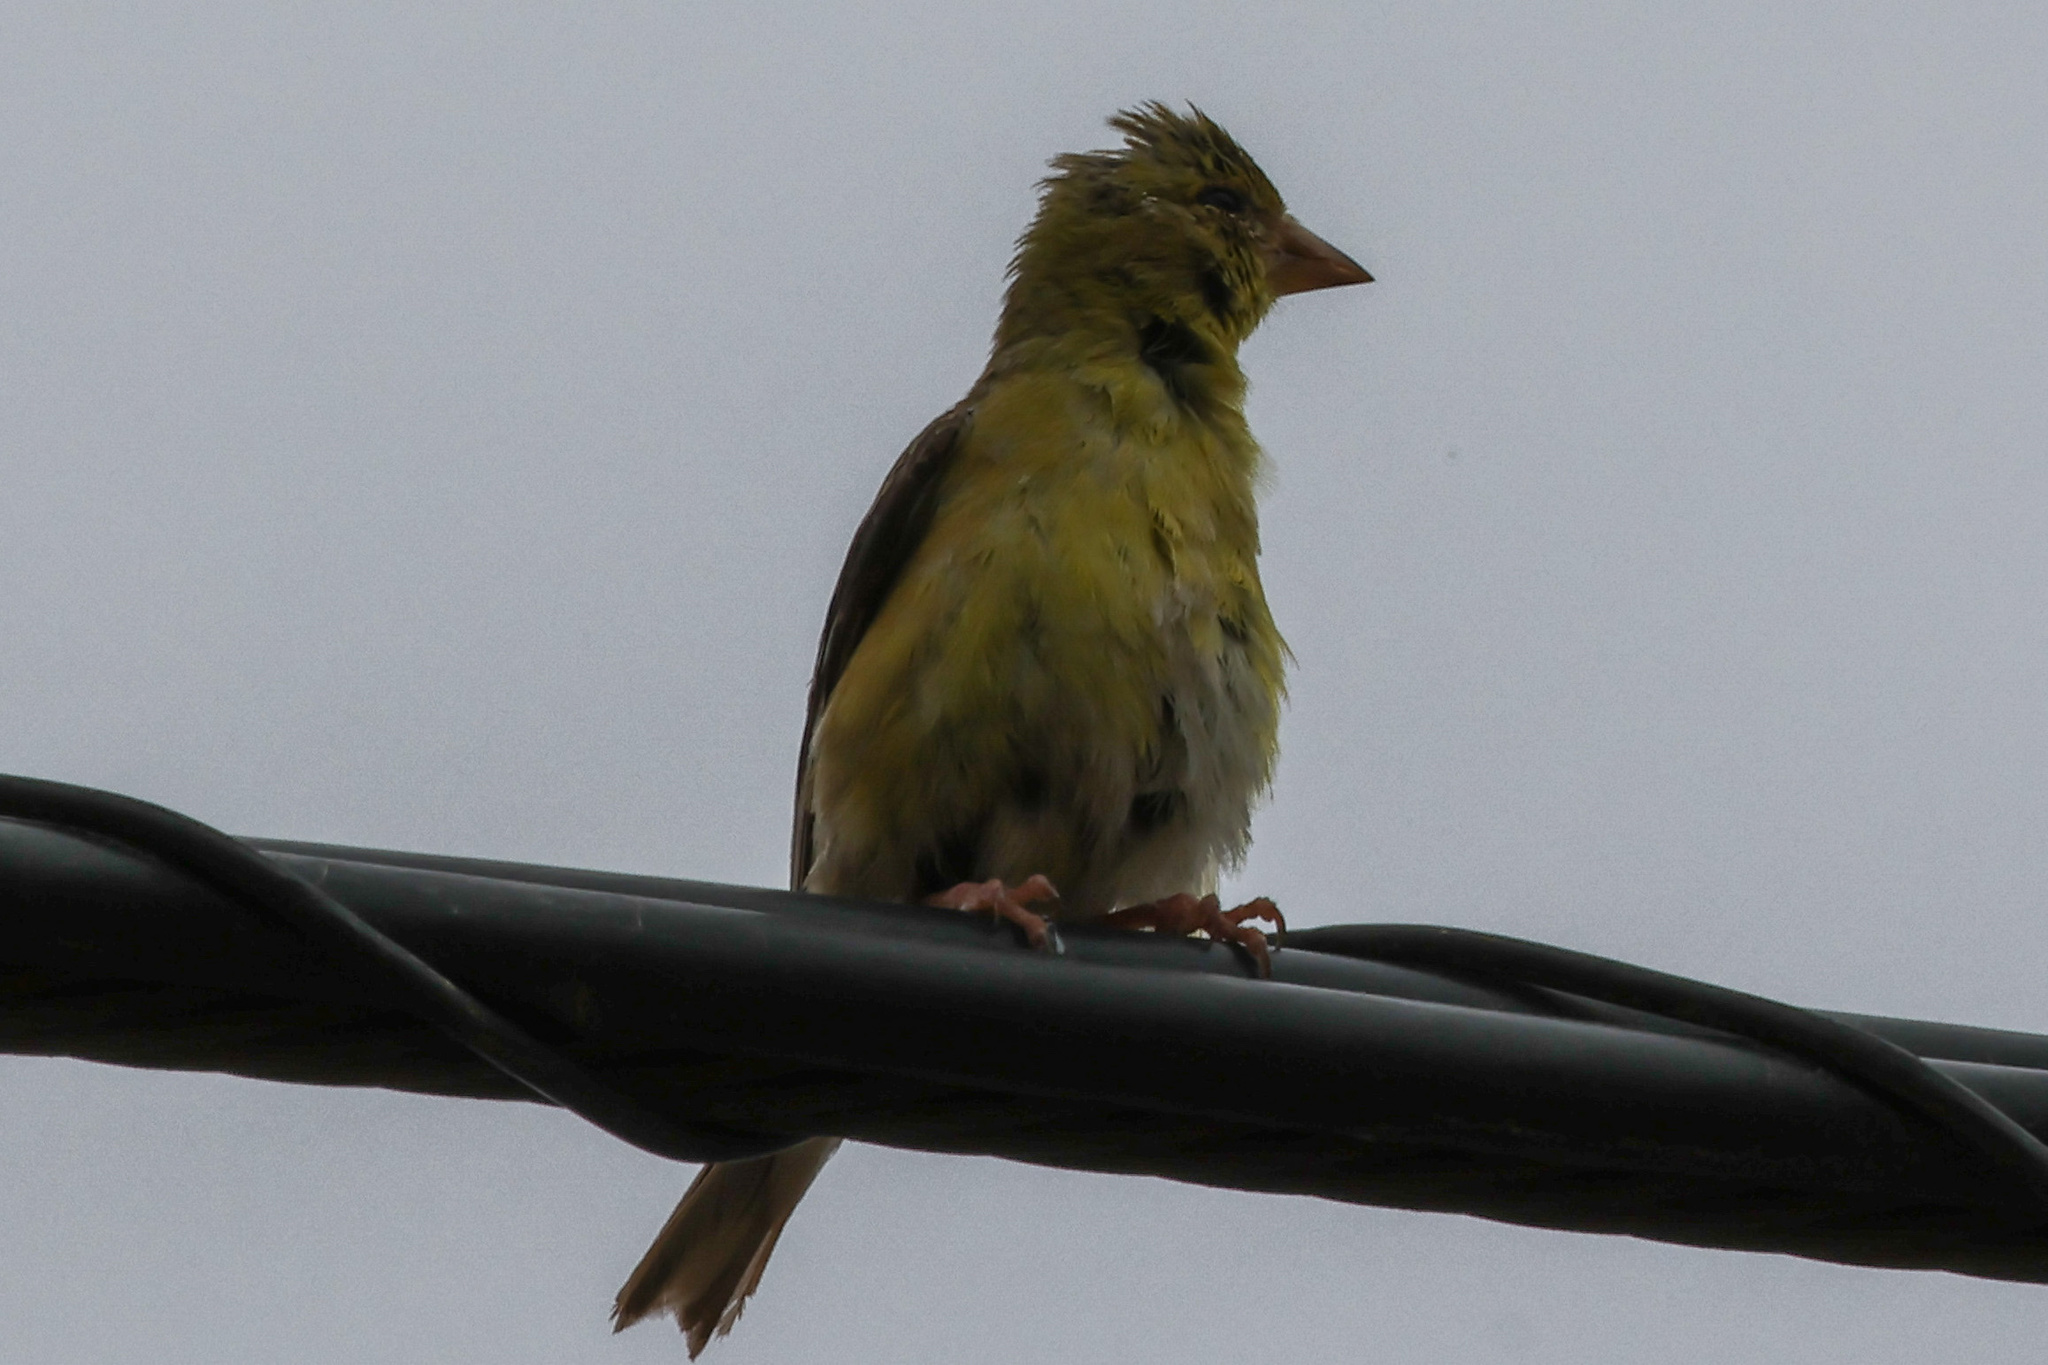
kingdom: Animalia
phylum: Chordata
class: Aves
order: Passeriformes
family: Fringillidae
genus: Spinus
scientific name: Spinus tristis
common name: American goldfinch
